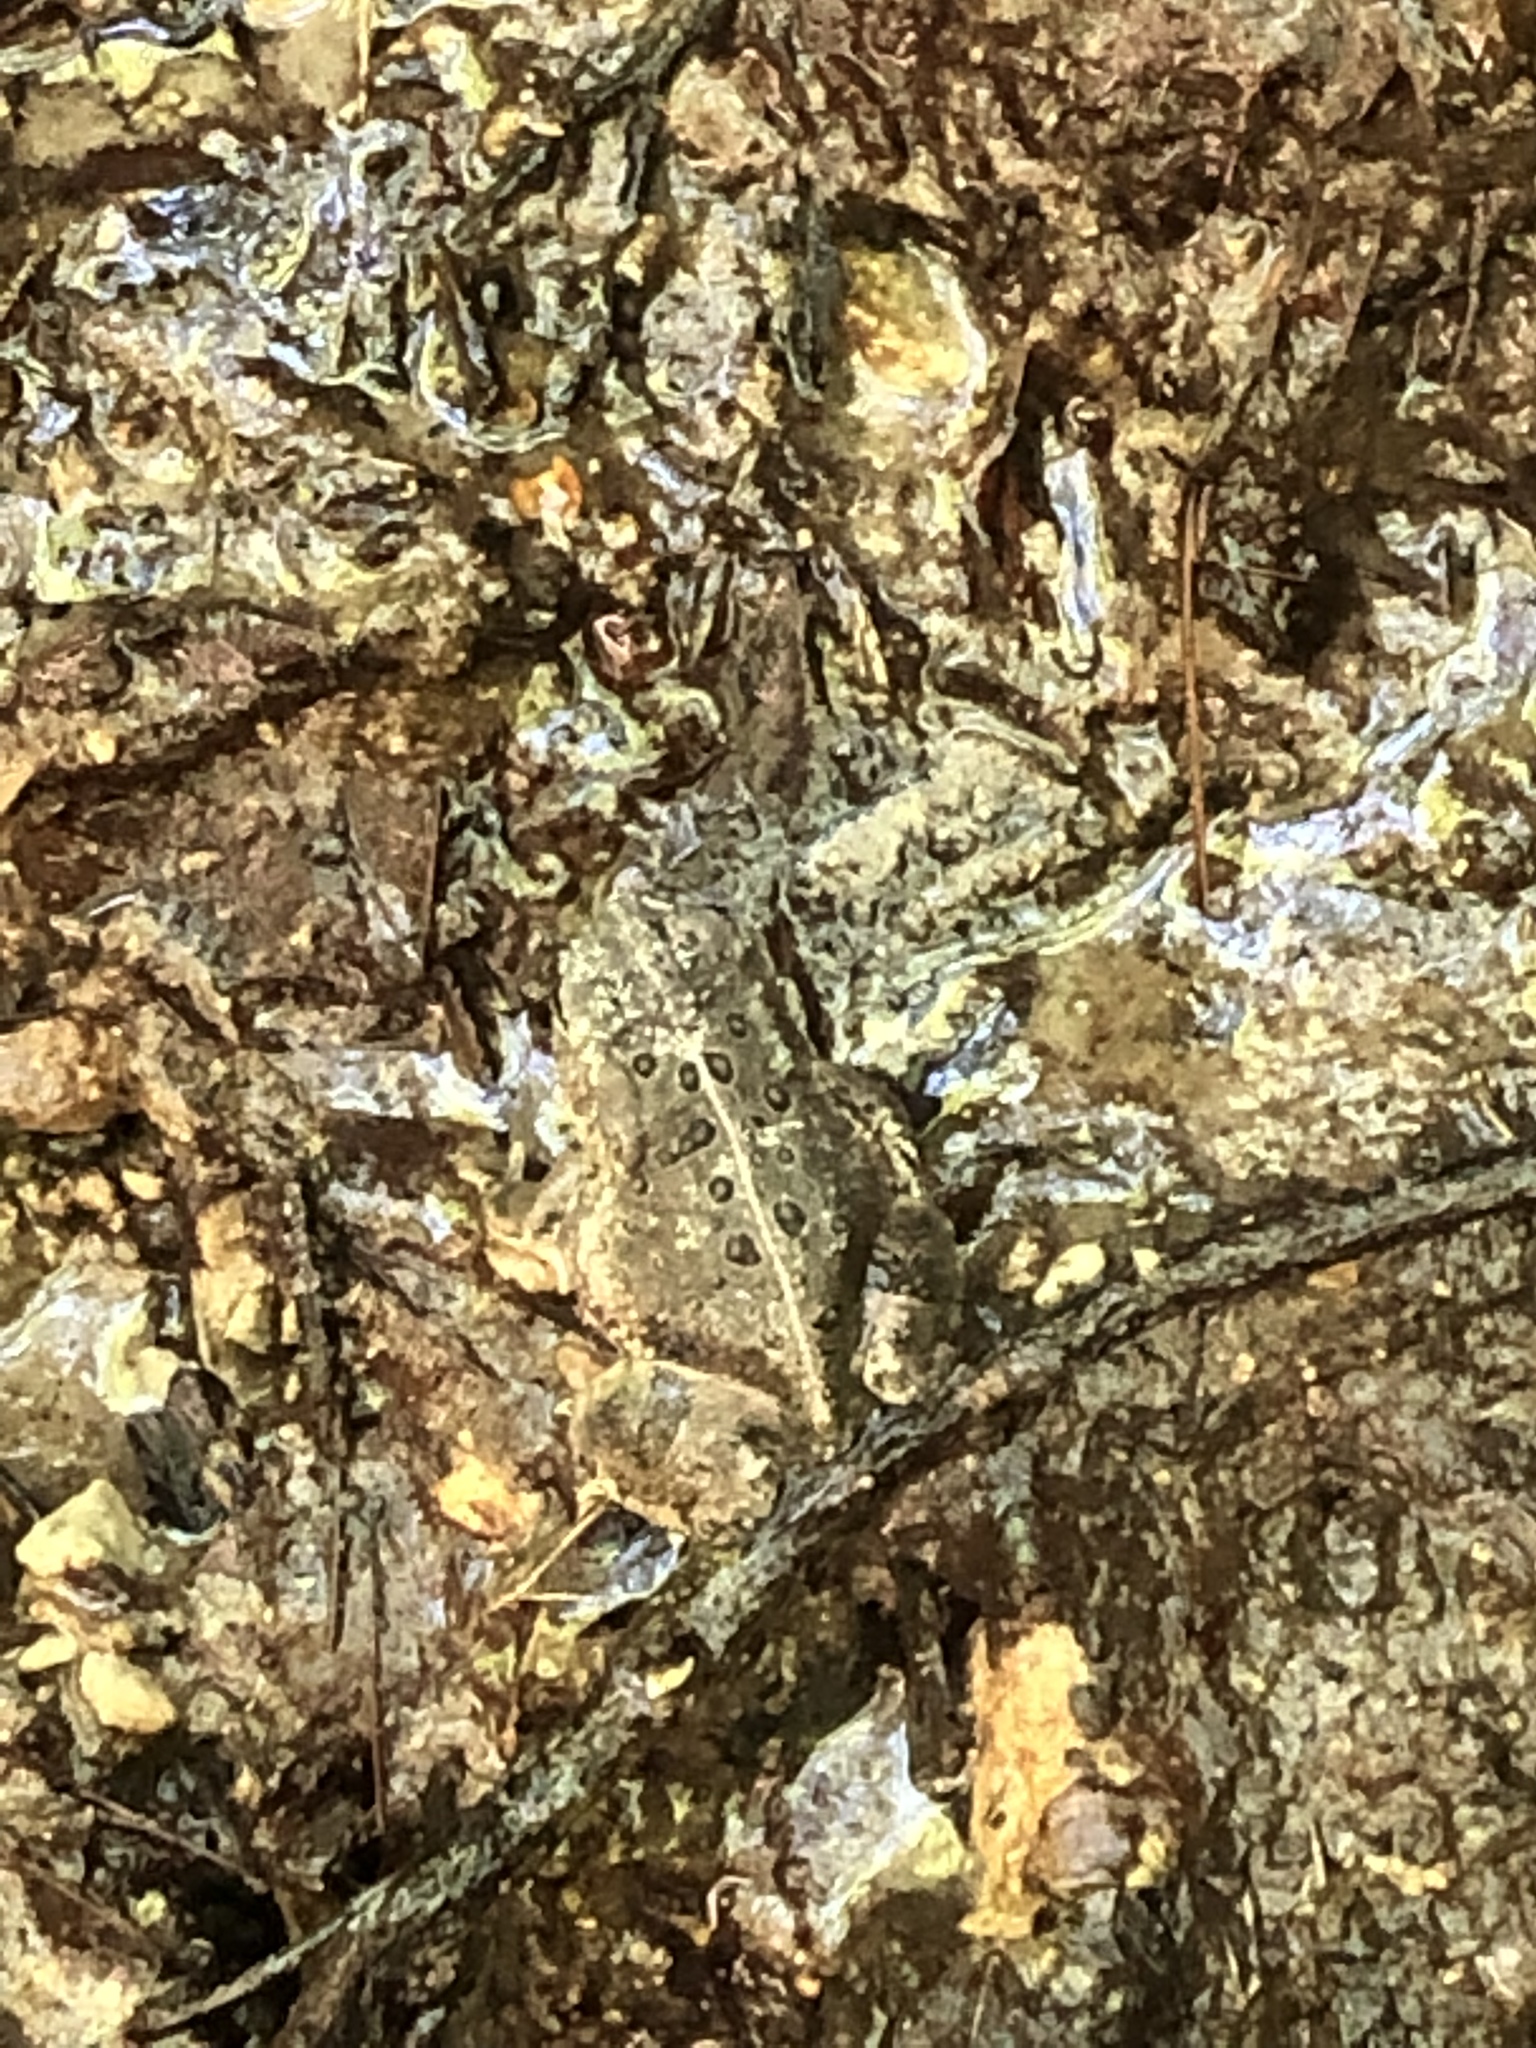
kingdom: Animalia
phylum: Chordata
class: Amphibia
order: Anura
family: Bufonidae
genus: Anaxyrus
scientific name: Anaxyrus woodhousii
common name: Woodhouse's toad
